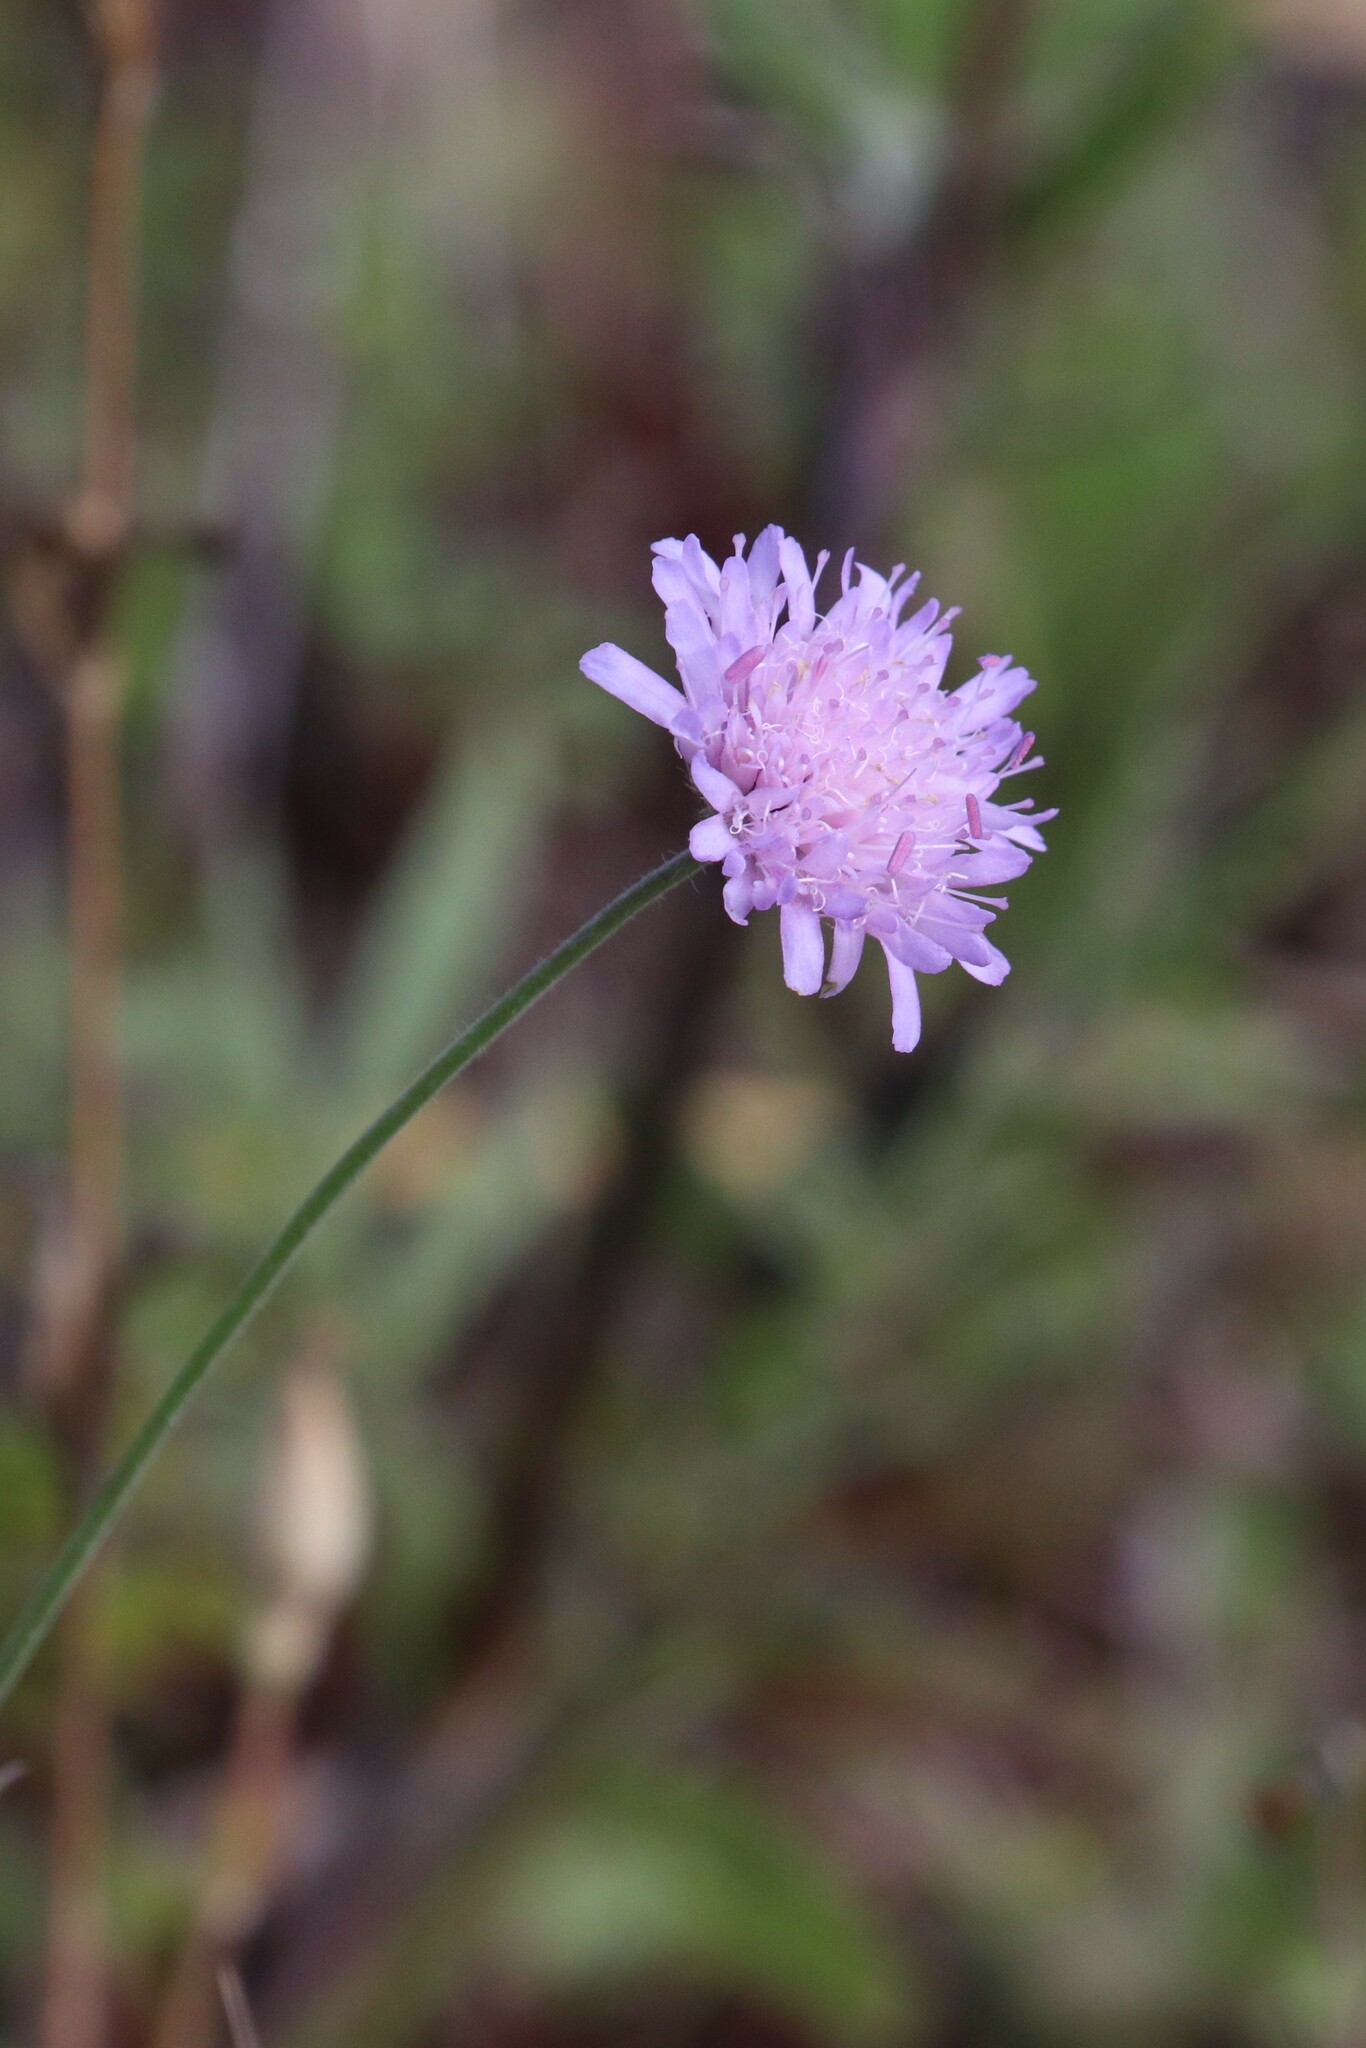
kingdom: Plantae
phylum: Tracheophyta
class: Magnoliopsida
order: Dipsacales
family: Caprifoliaceae
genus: Knautia
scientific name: Knautia arvensis
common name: Field scabiosa
